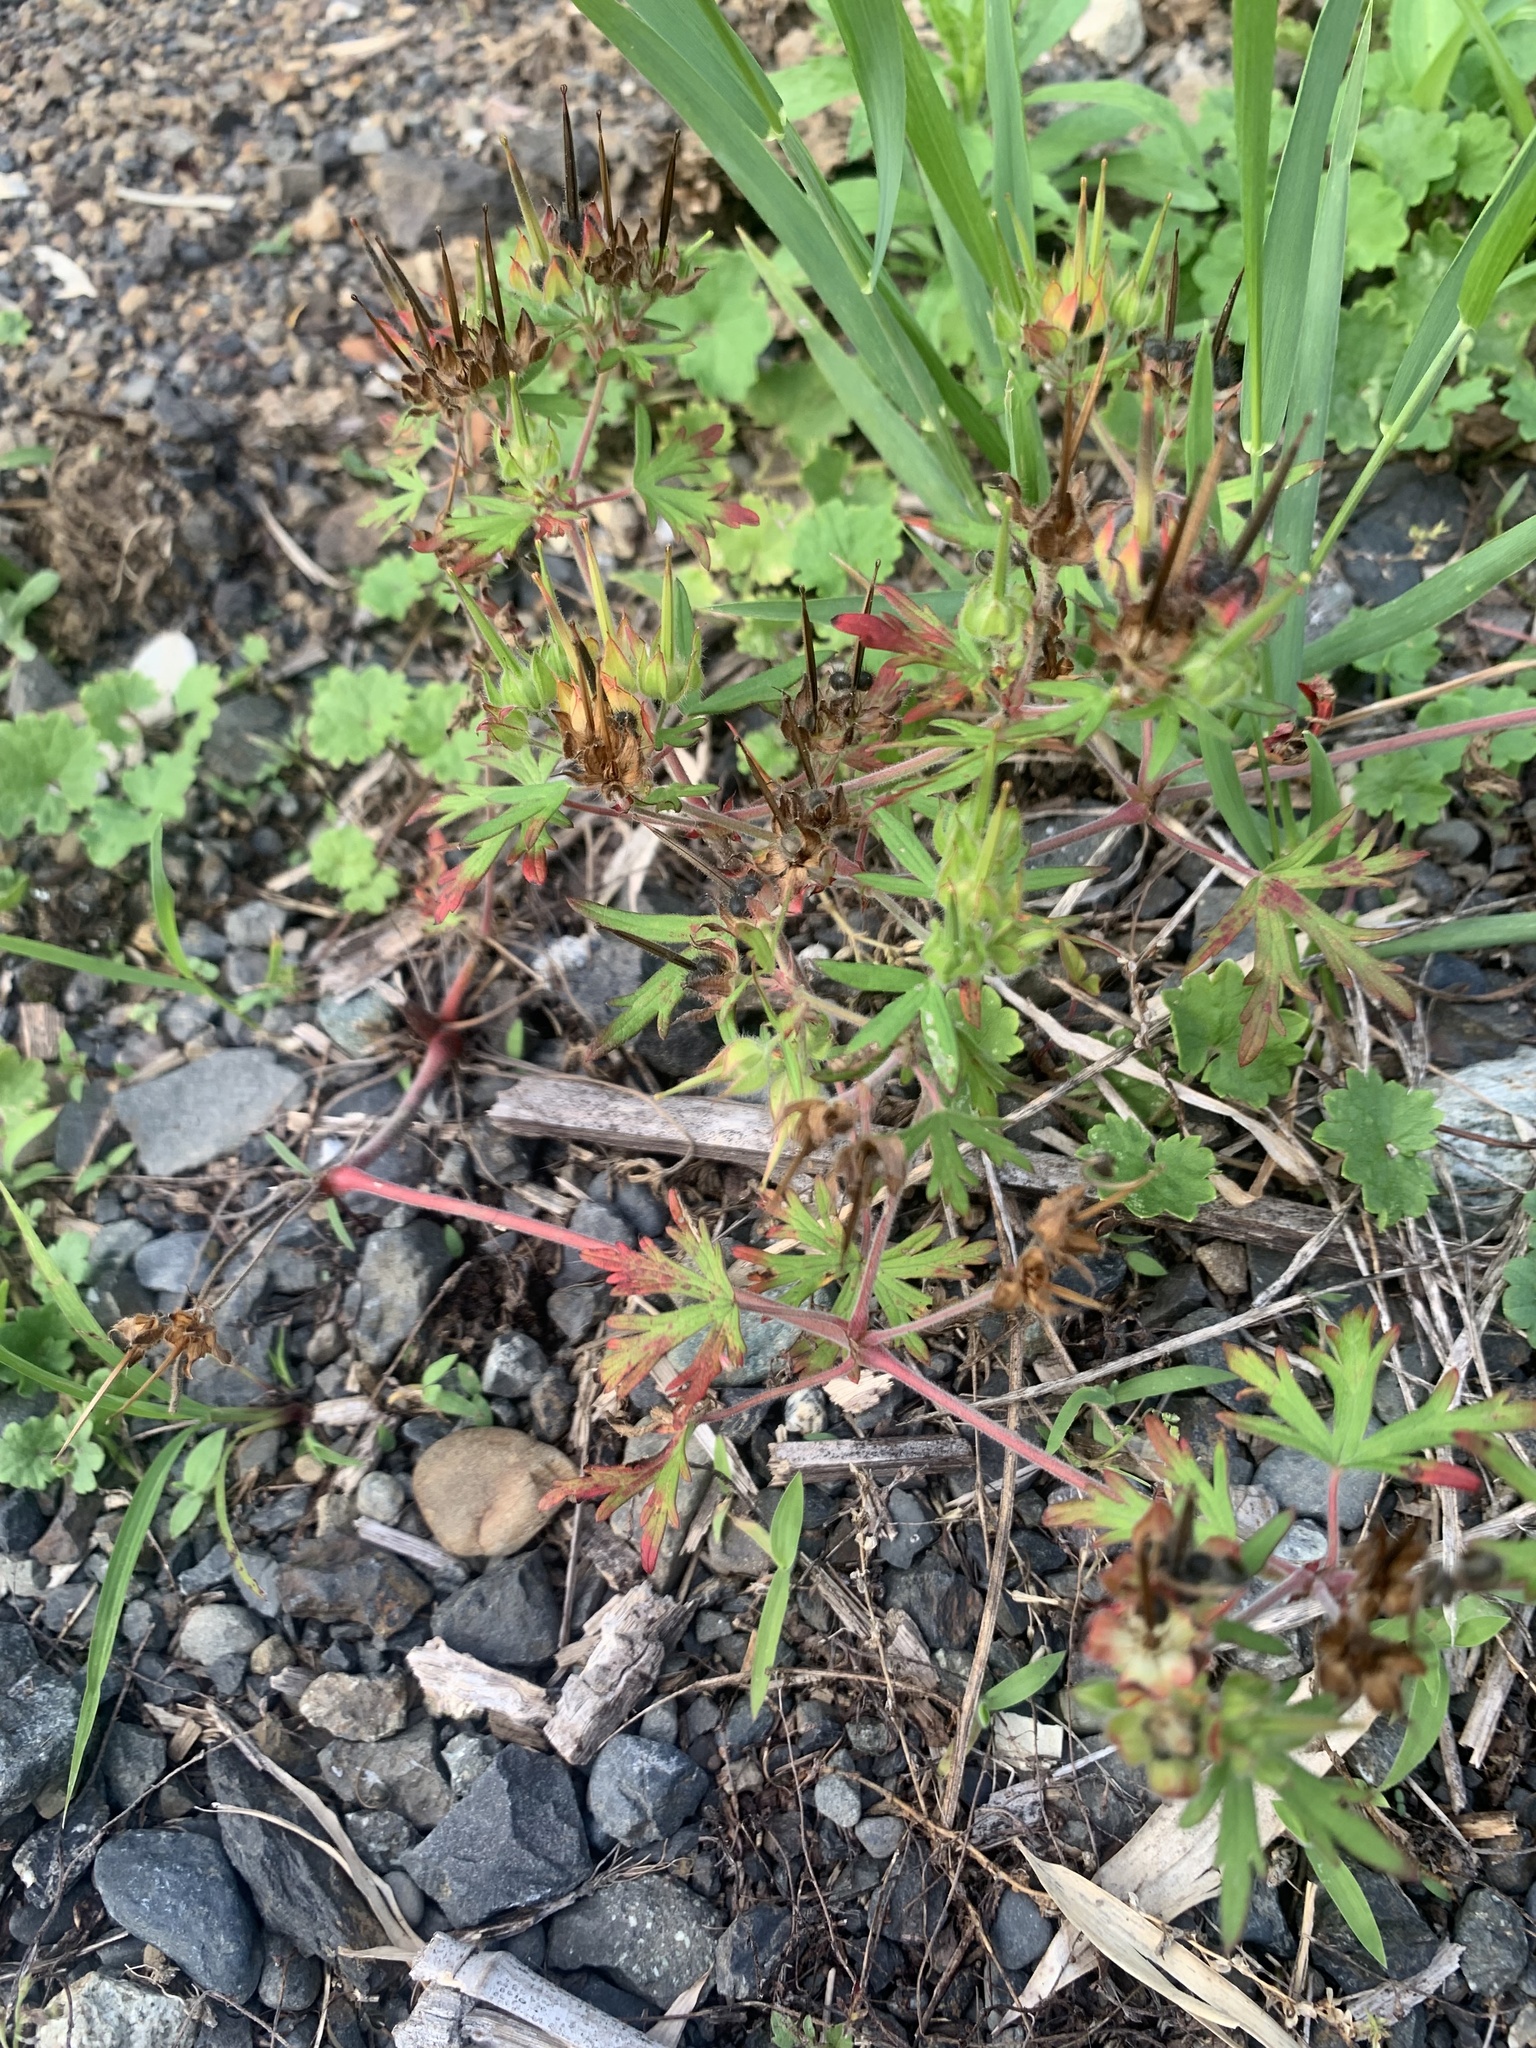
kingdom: Plantae
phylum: Tracheophyta
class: Magnoliopsida
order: Geraniales
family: Geraniaceae
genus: Geranium
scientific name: Geranium carolinianum
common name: Carolina crane's-bill
